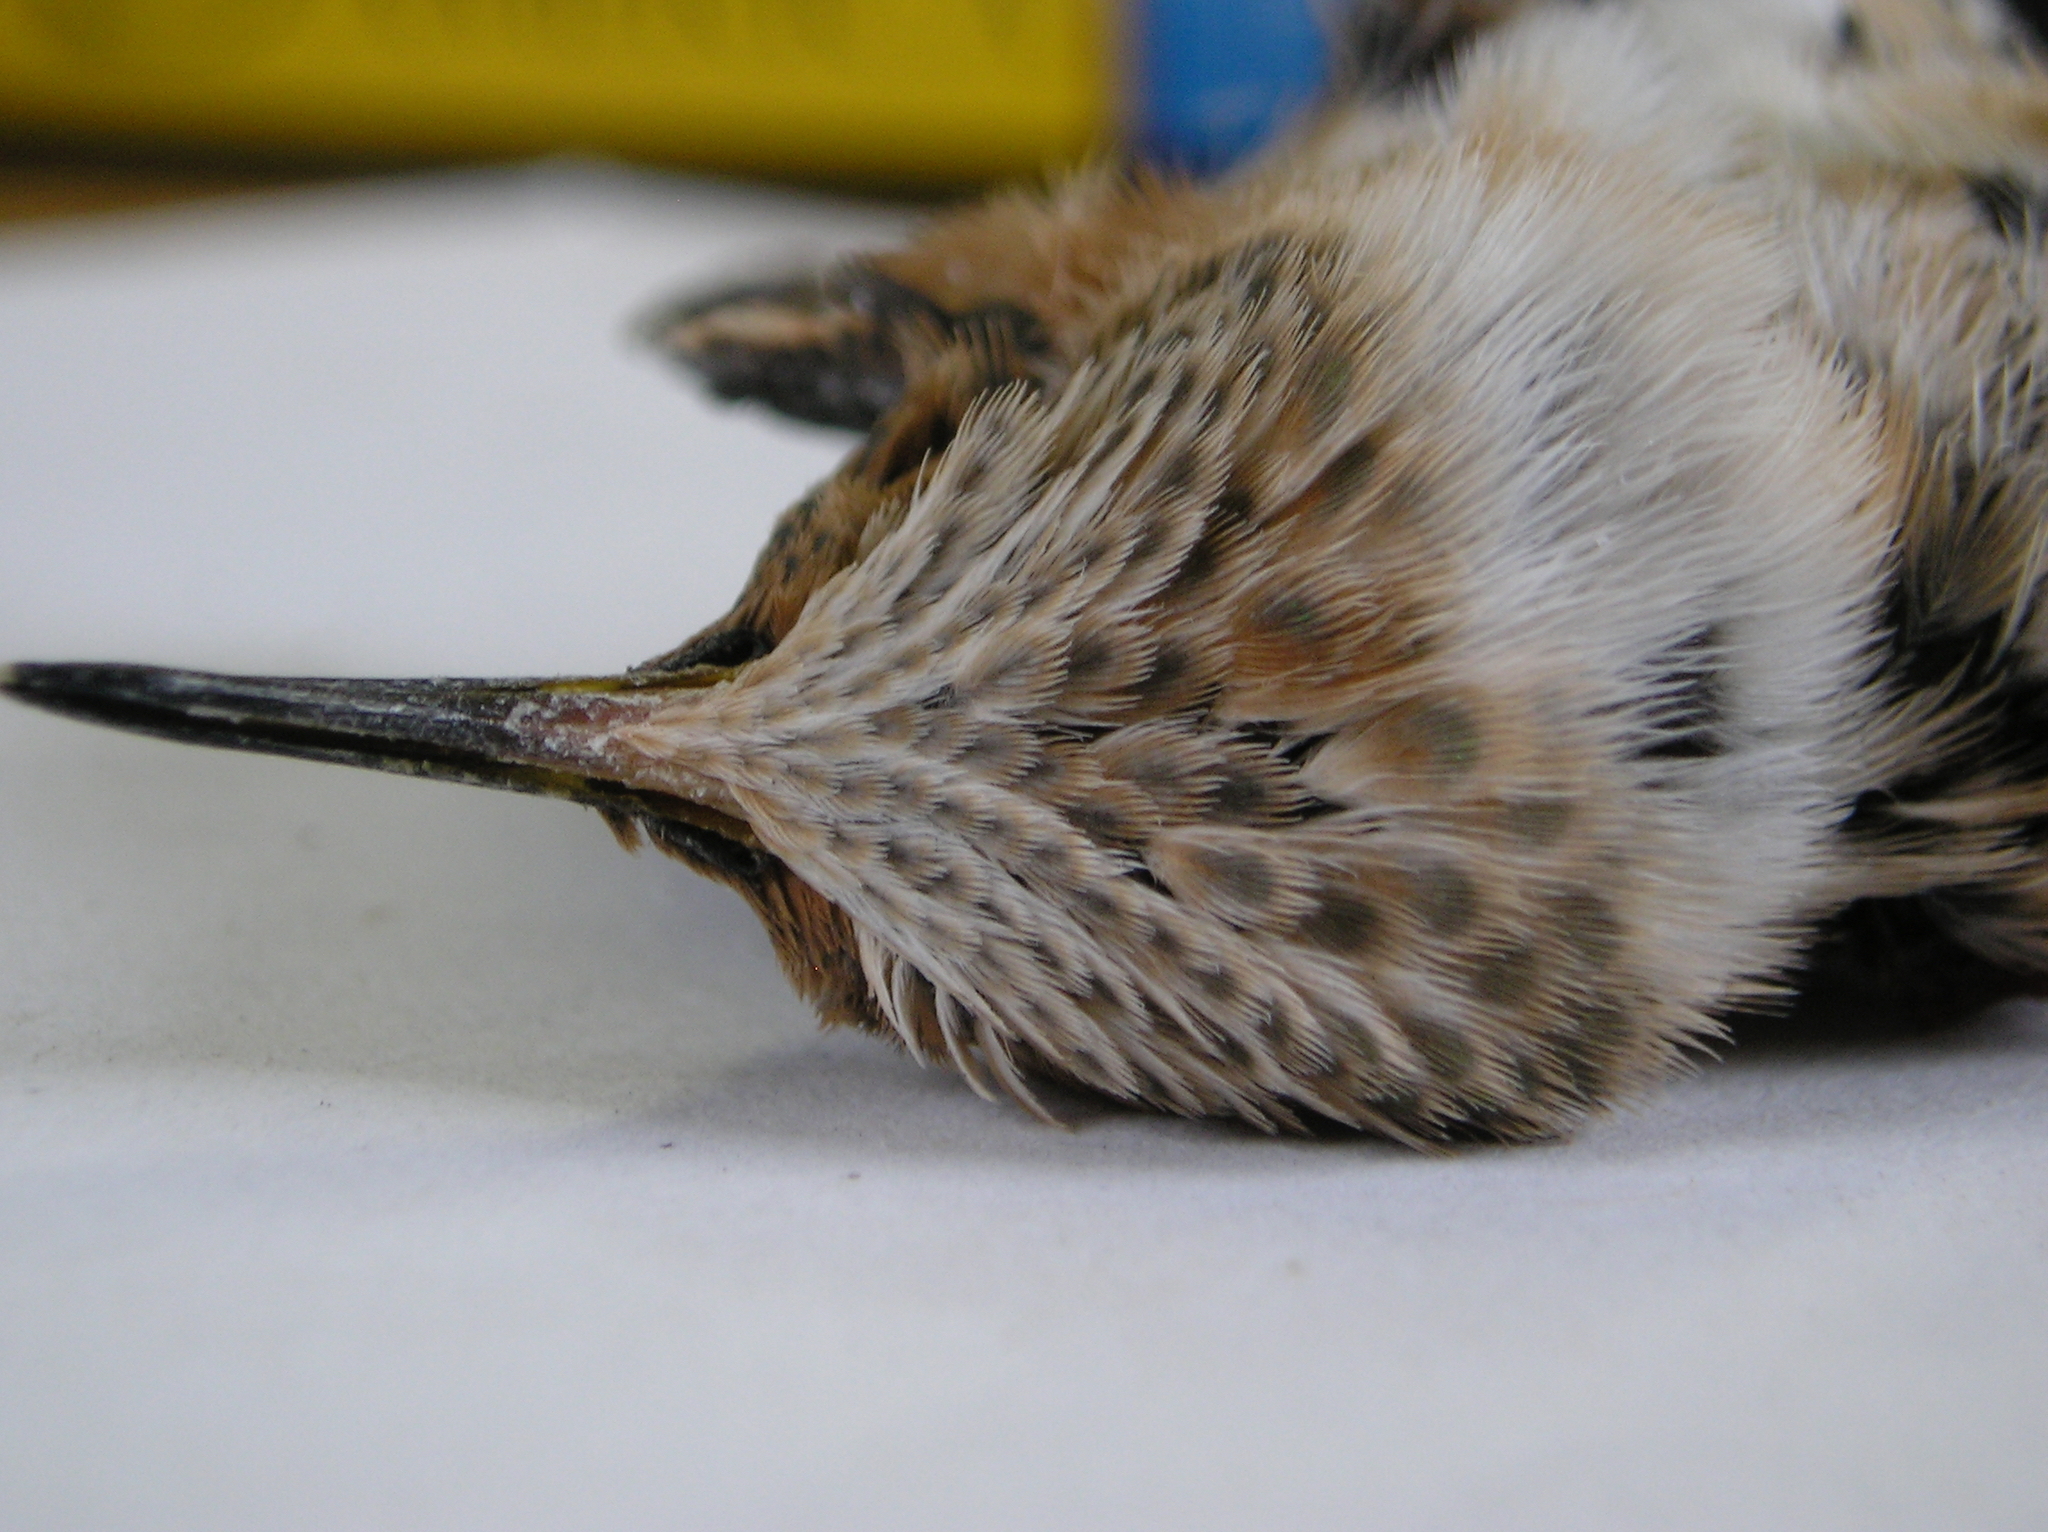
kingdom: Animalia
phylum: Chordata
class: Aves
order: Apodiformes
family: Trochilidae
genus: Selasphorus
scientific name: Selasphorus sasin
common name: Allen's hummingbird
